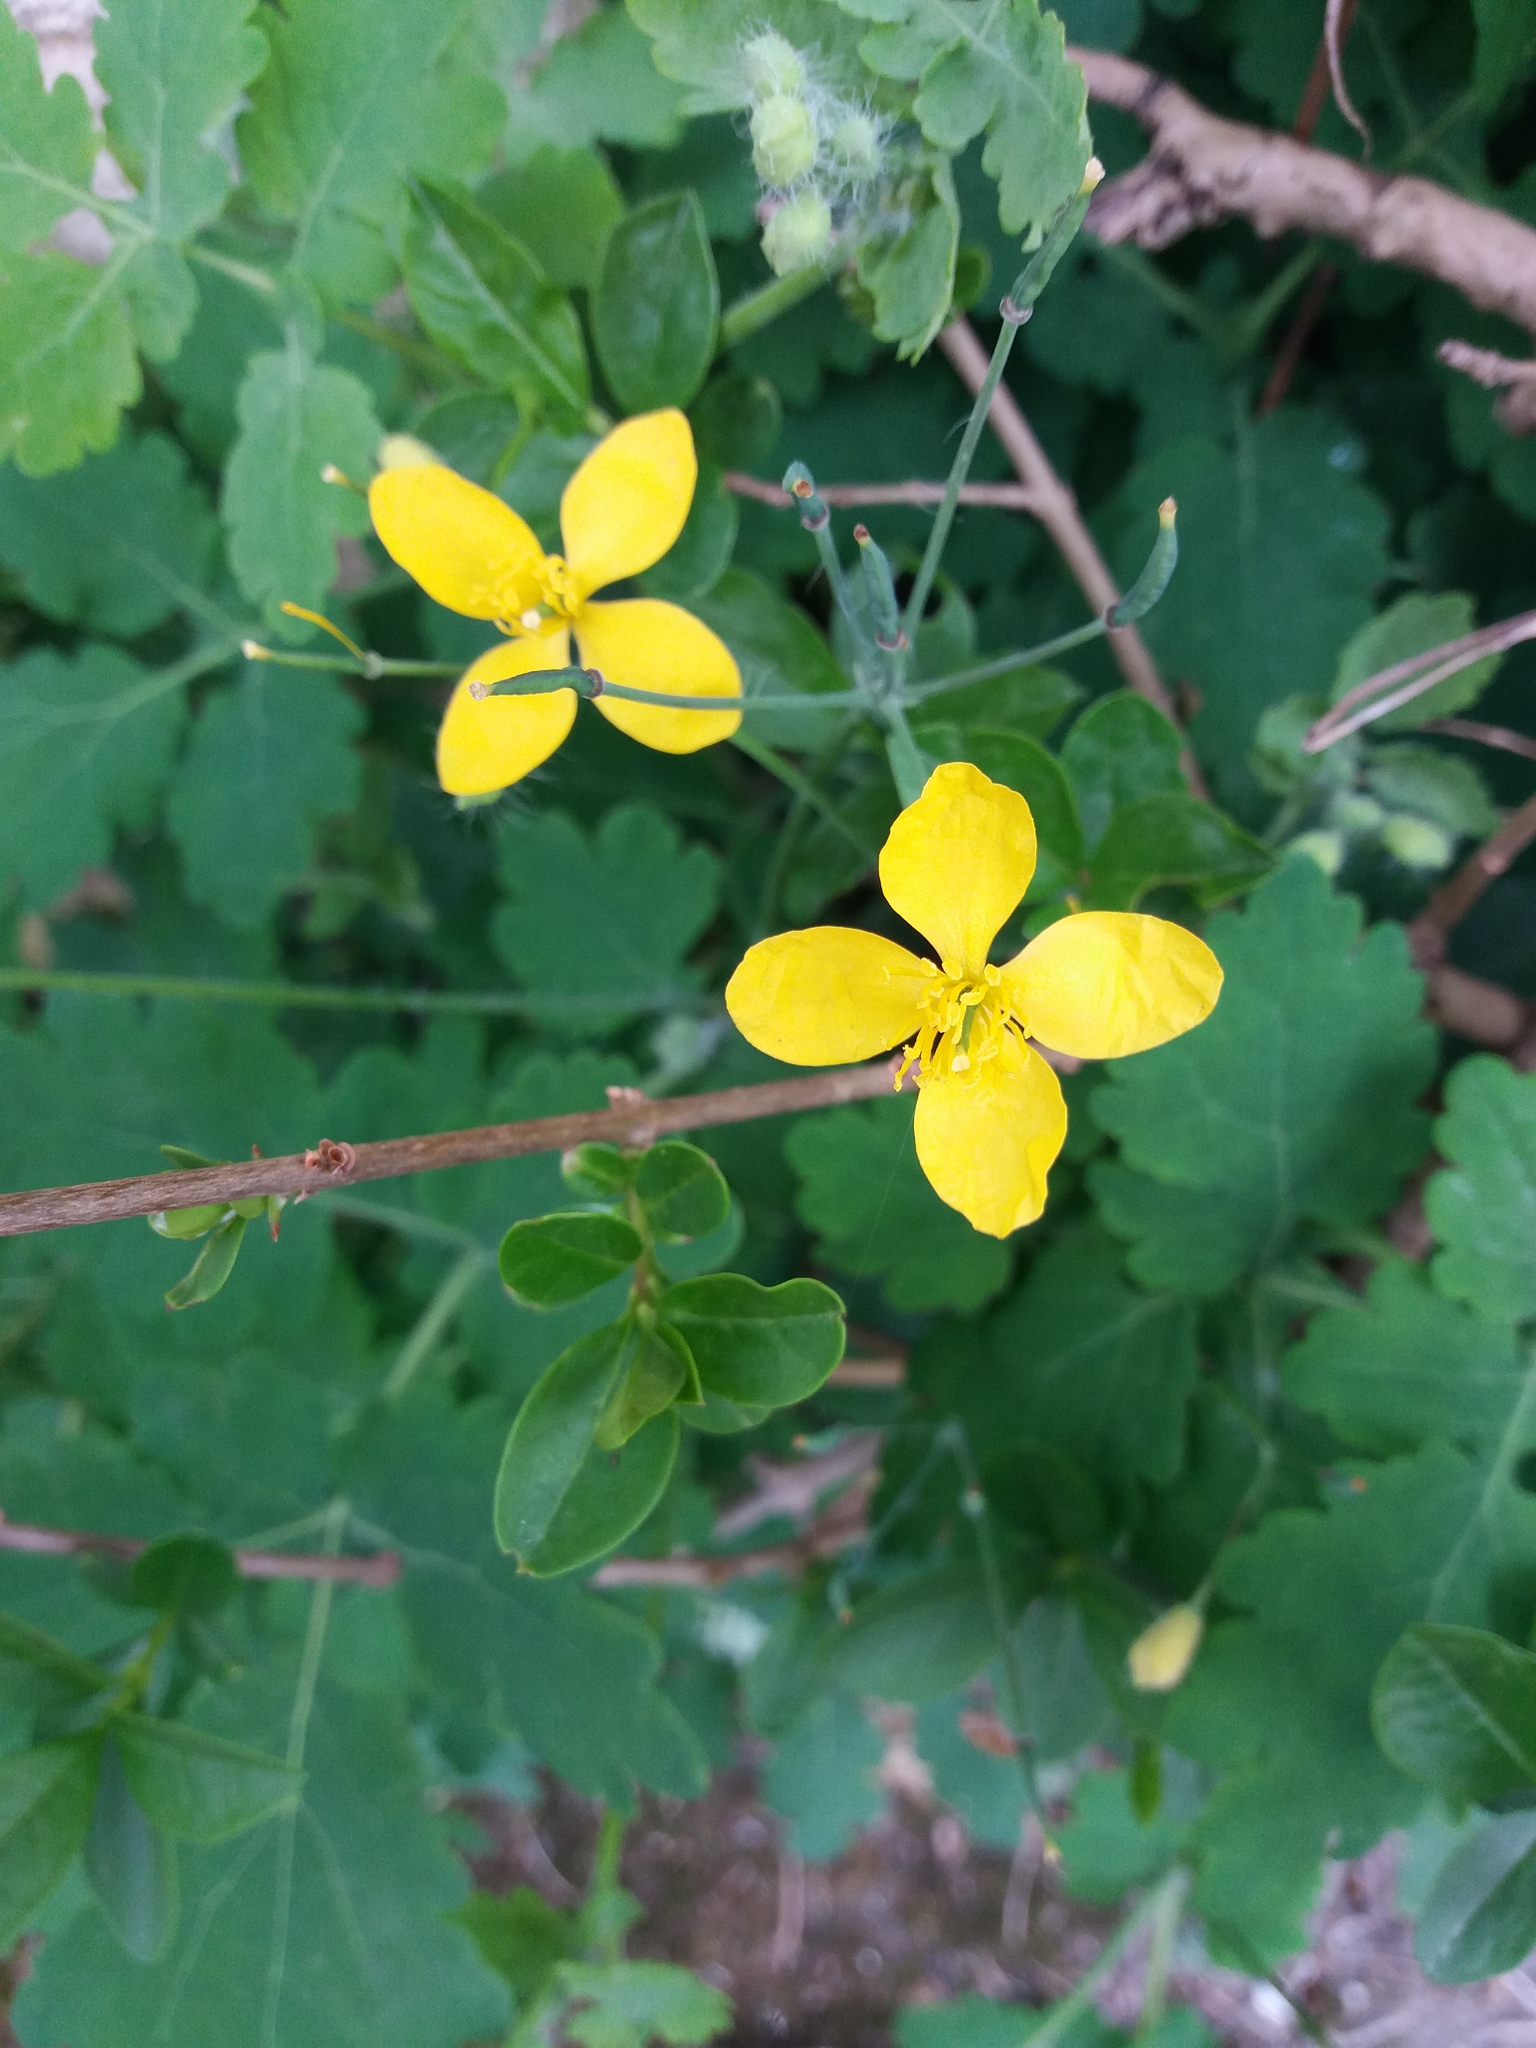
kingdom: Plantae
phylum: Tracheophyta
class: Magnoliopsida
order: Ranunculales
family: Papaveraceae
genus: Chelidonium
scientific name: Chelidonium majus
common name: Greater celandine
